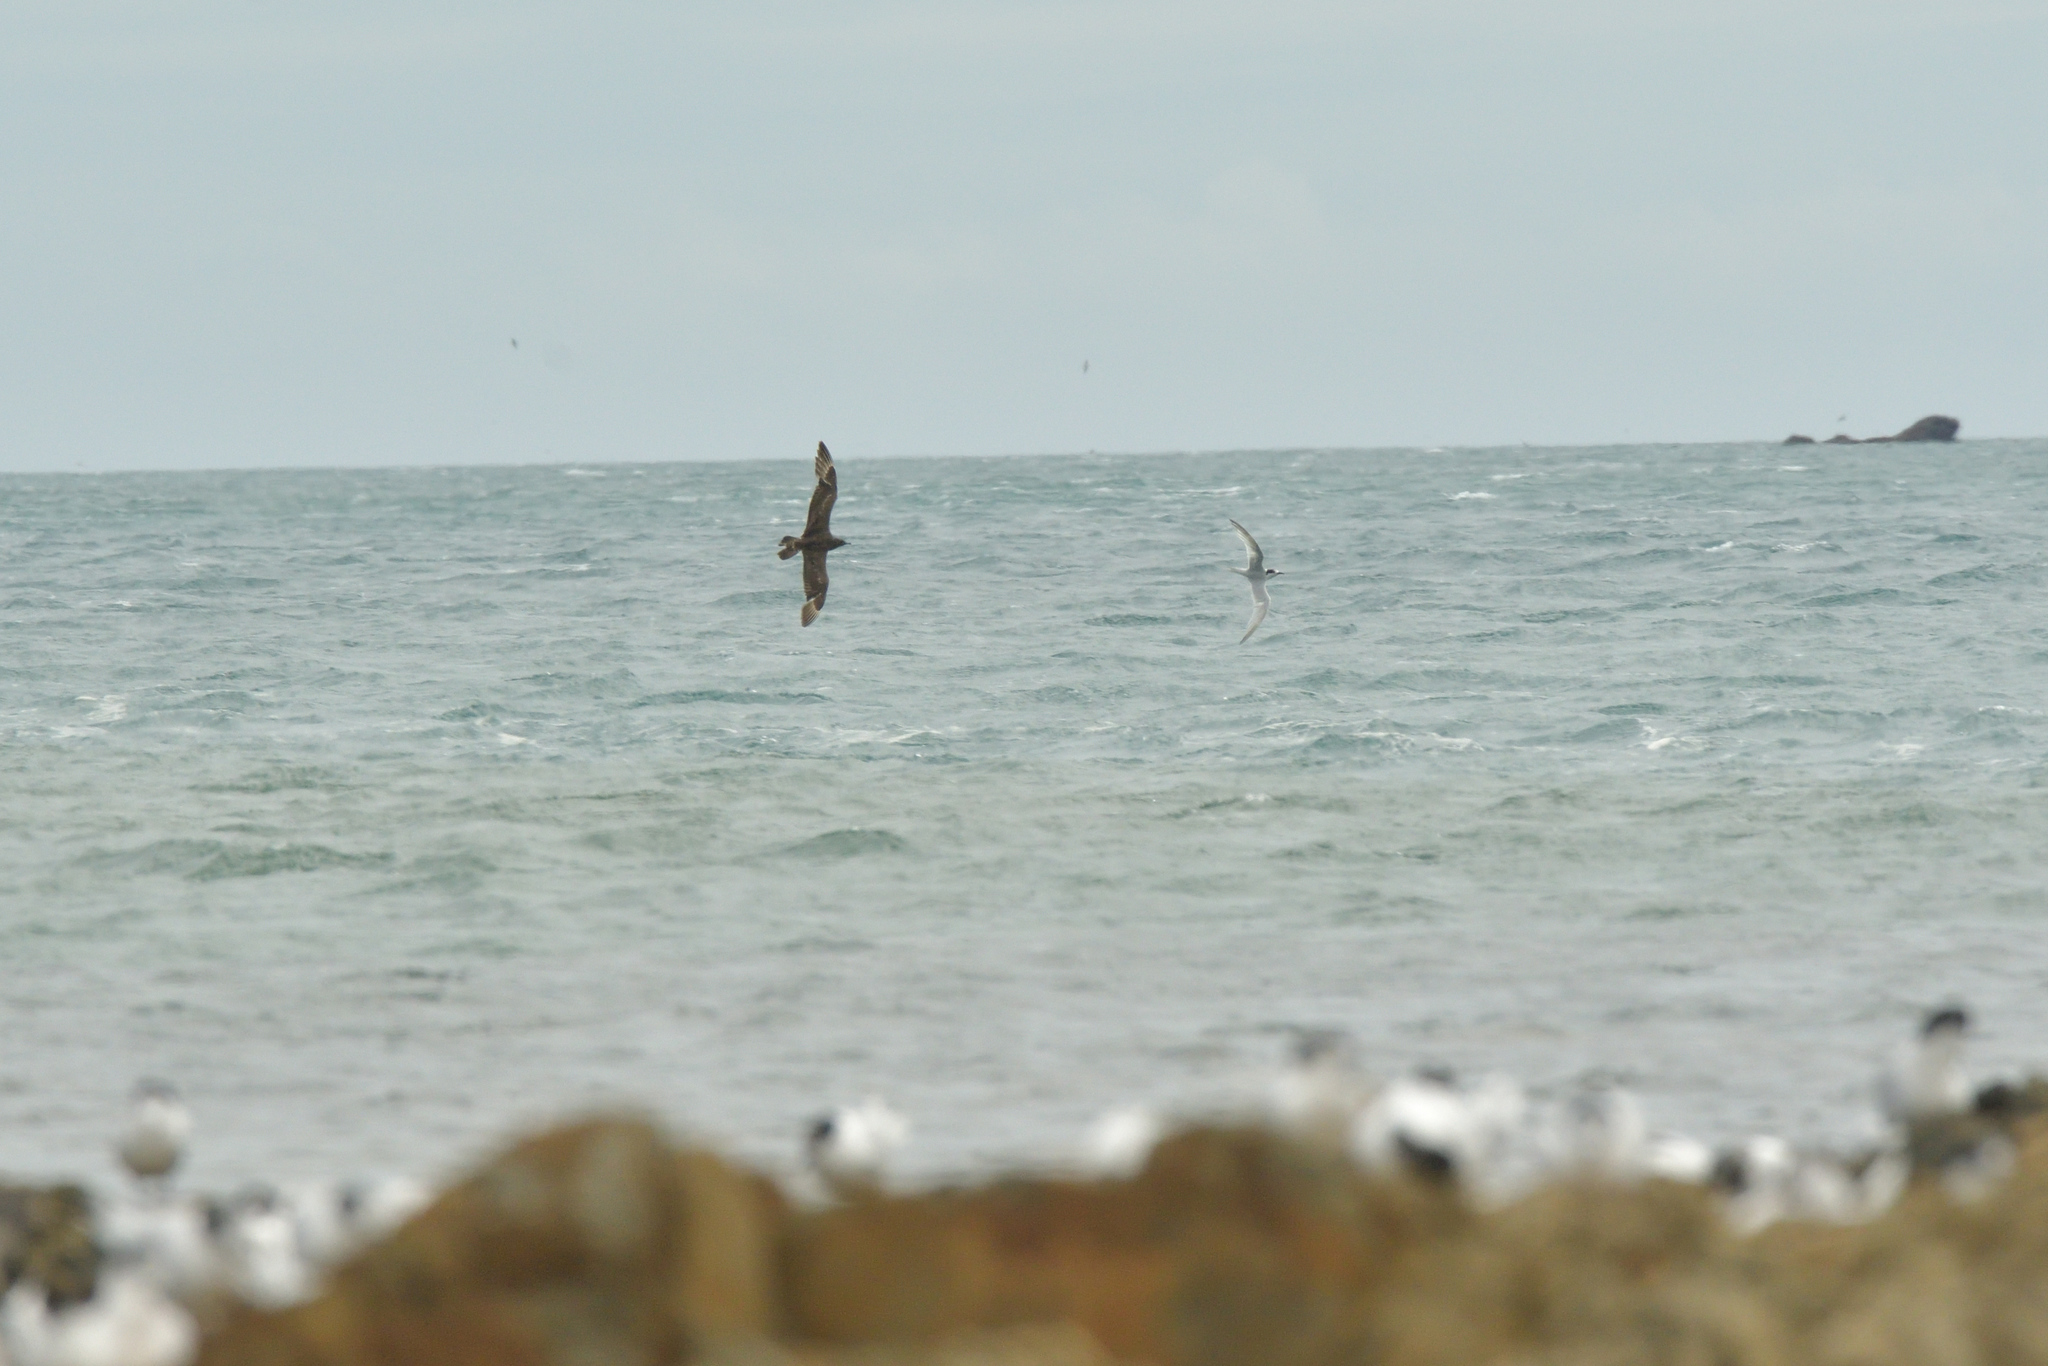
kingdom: Animalia
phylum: Chordata
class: Aves
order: Charadriiformes
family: Stercorariidae
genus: Stercorarius
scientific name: Stercorarius parasiticus
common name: Parasitic jaeger
